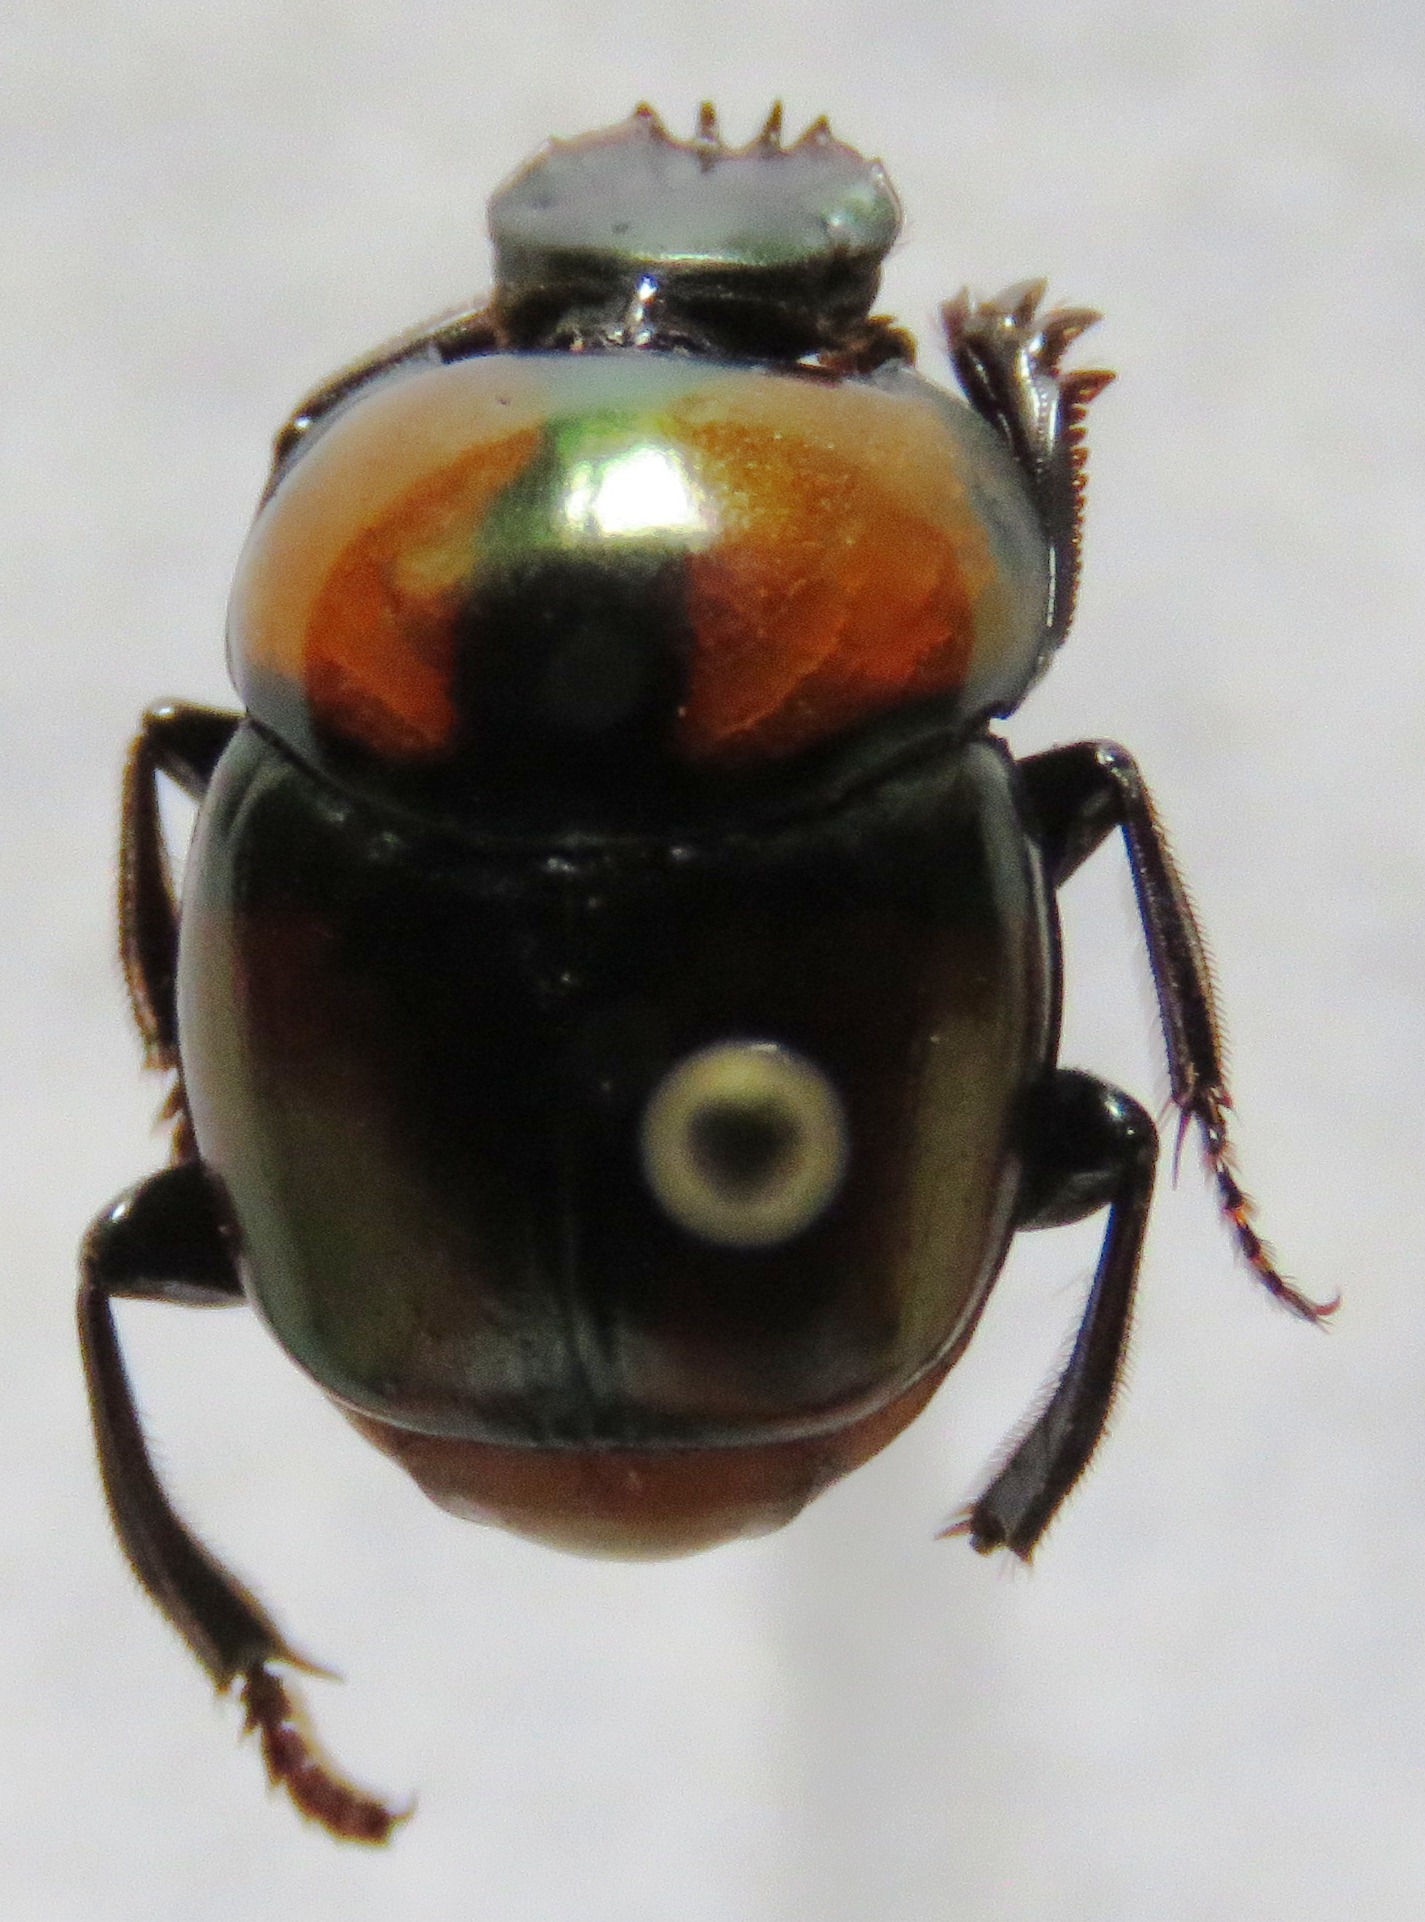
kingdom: Animalia
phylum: Arthropoda
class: Insecta
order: Coleoptera
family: Scarabaeidae
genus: Canthon
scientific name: Canthon cyanellus
